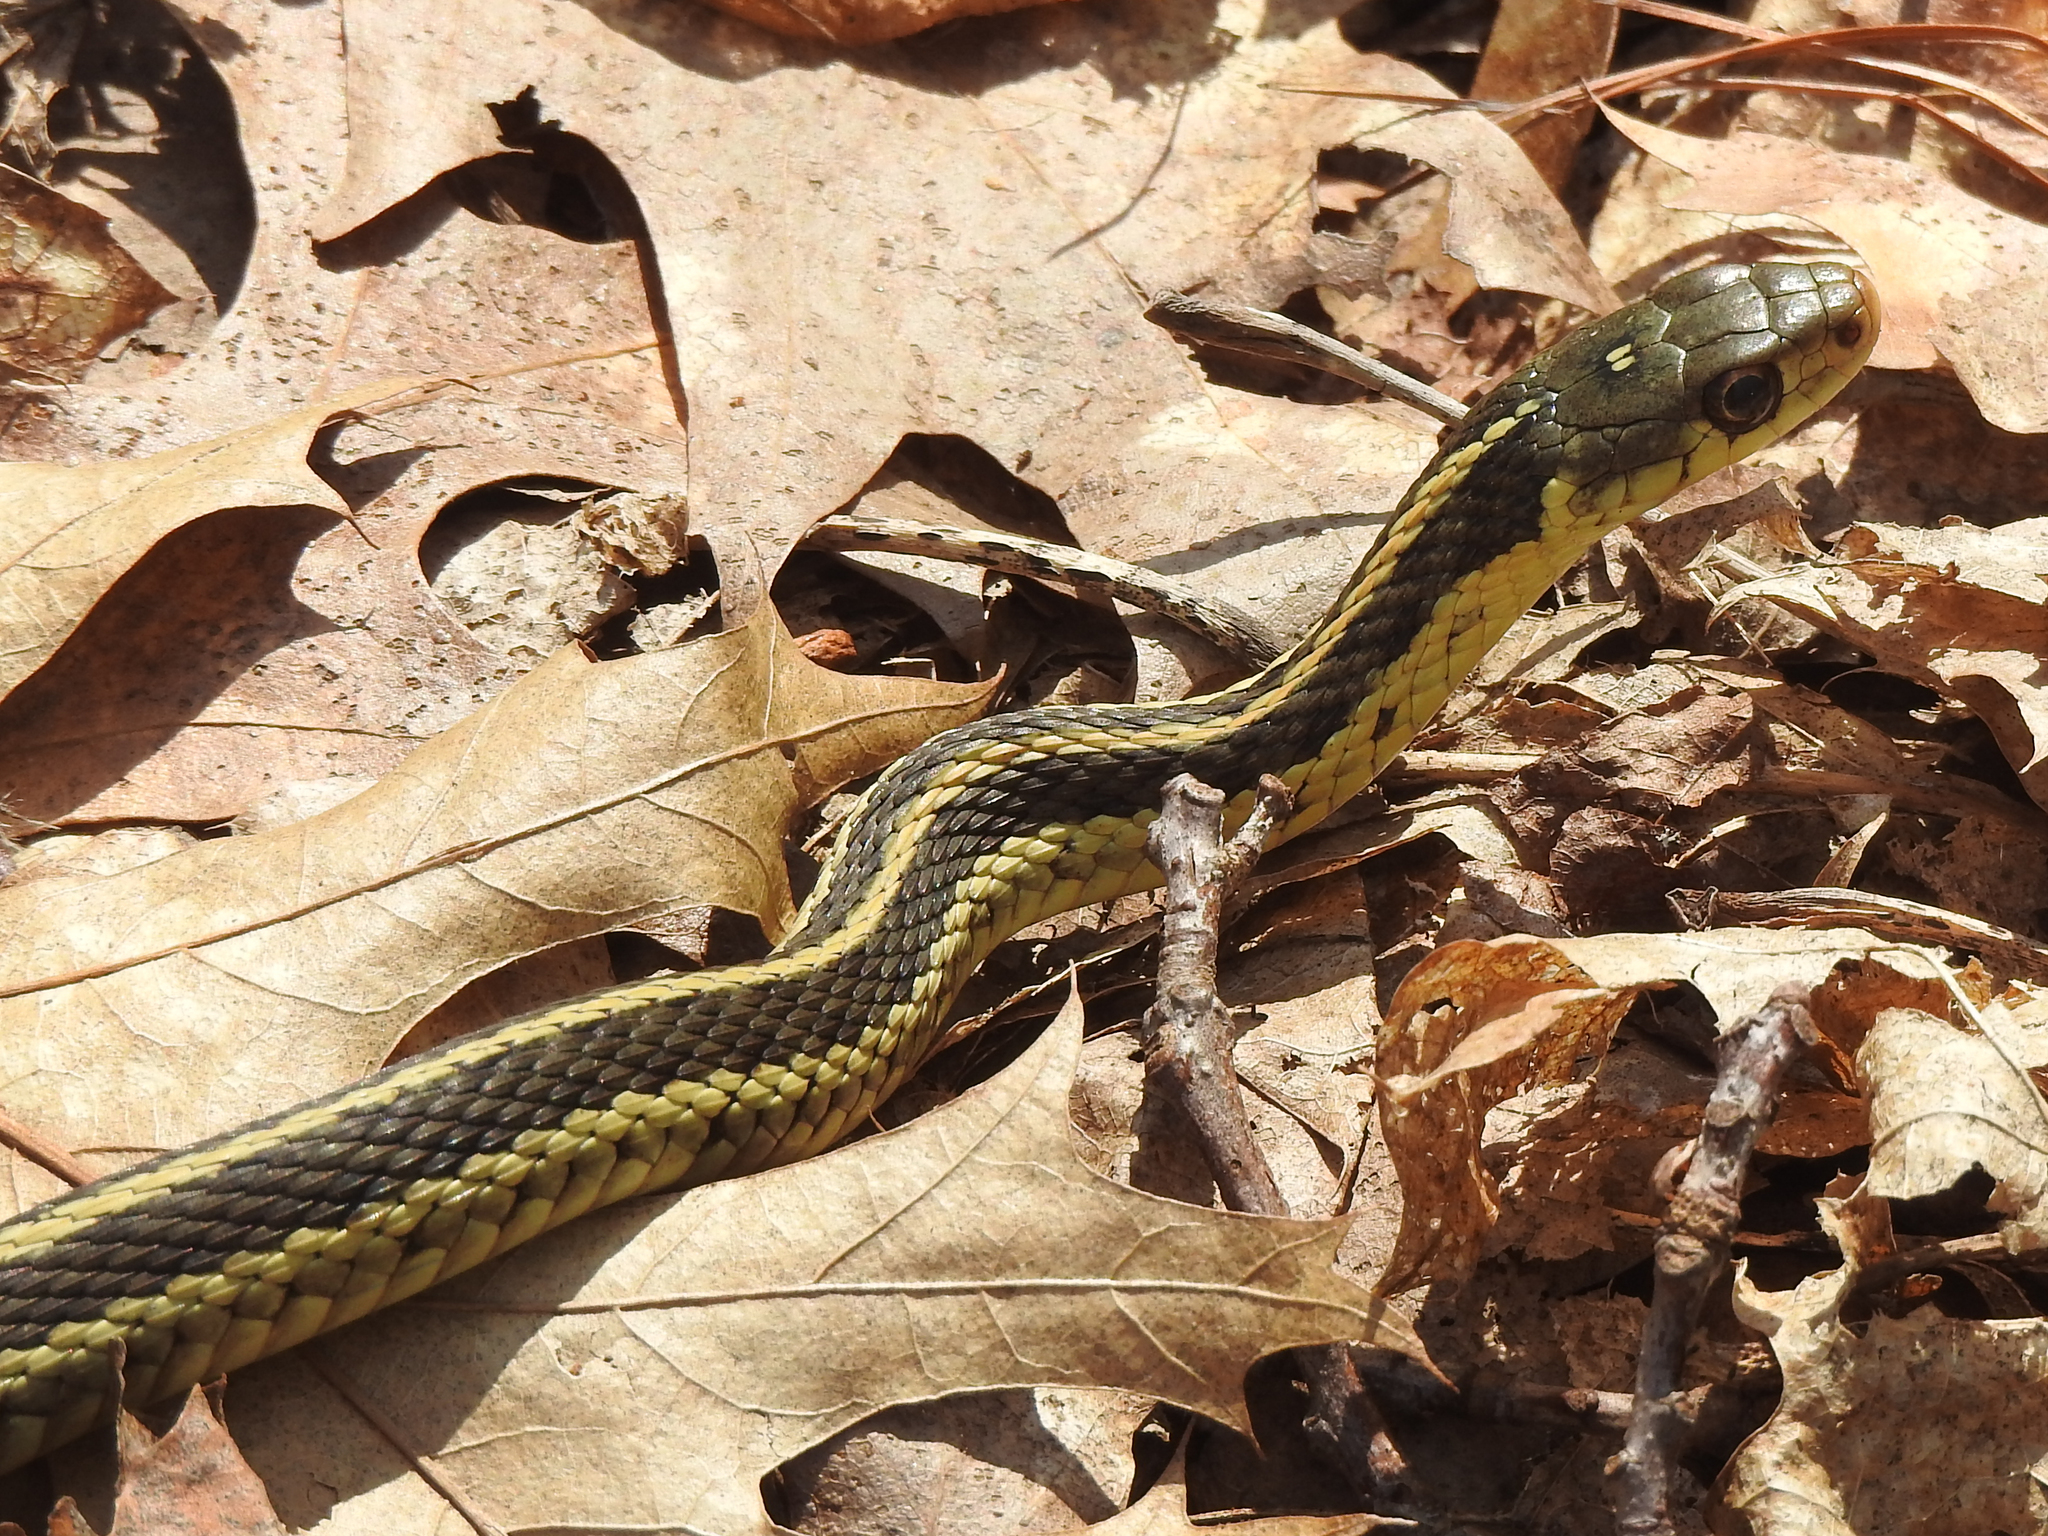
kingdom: Animalia
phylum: Chordata
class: Squamata
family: Colubridae
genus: Thamnophis
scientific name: Thamnophis sirtalis
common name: Common garter snake
